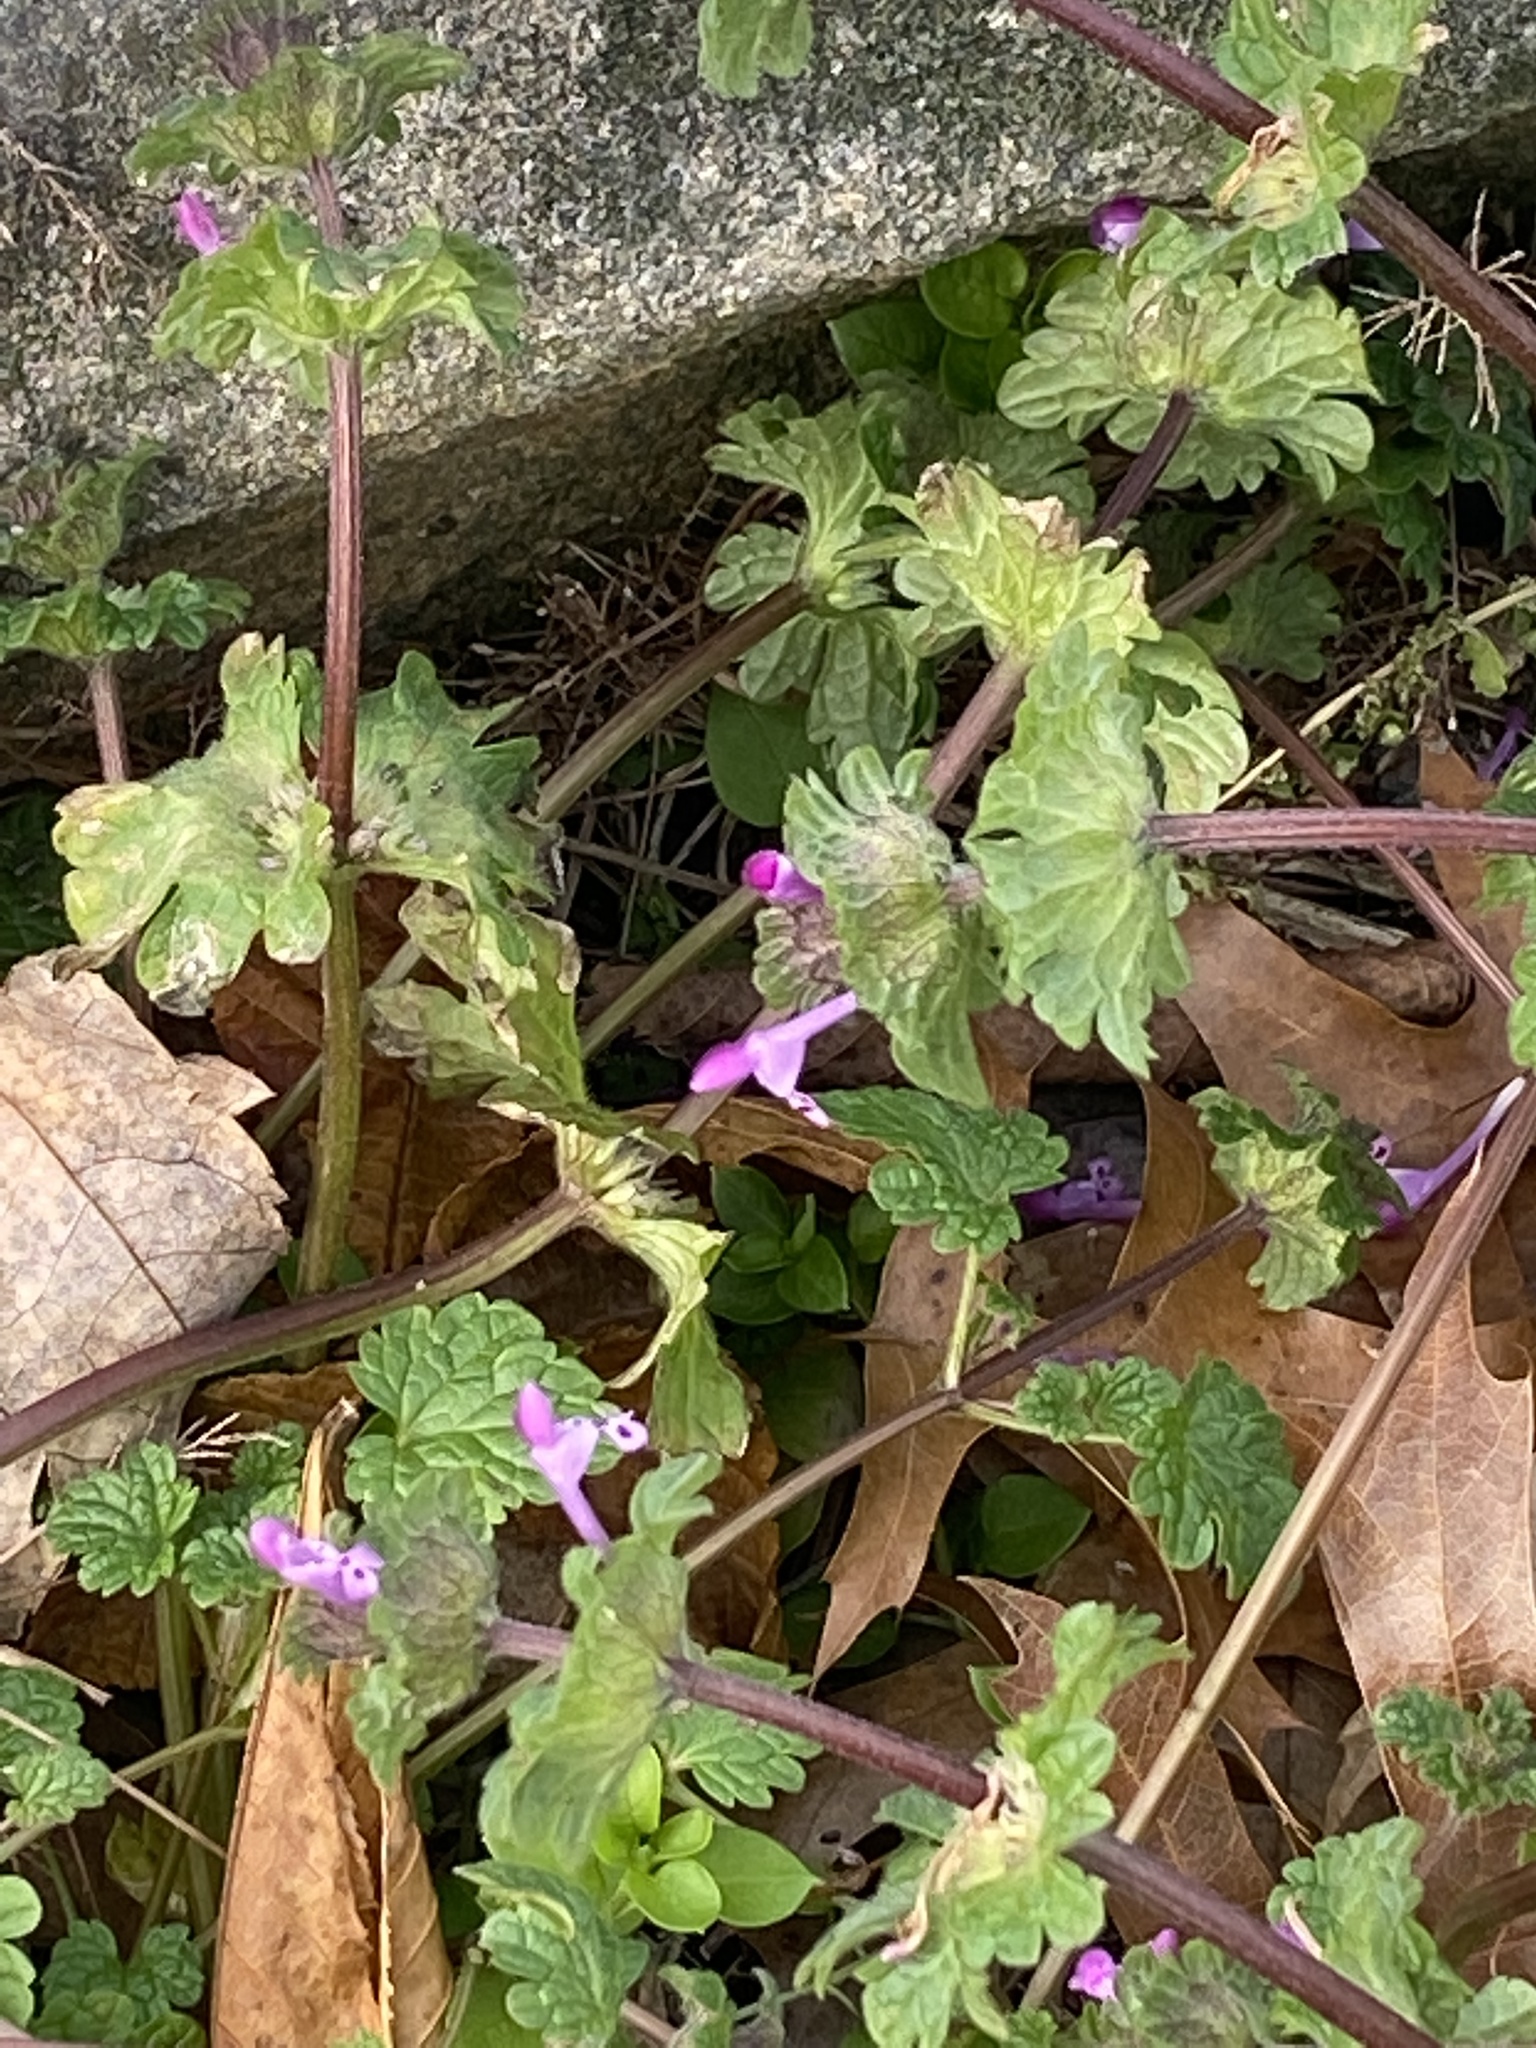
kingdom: Plantae
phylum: Tracheophyta
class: Magnoliopsida
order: Lamiales
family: Lamiaceae
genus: Lamium
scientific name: Lamium amplexicaule
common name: Henbit dead-nettle
